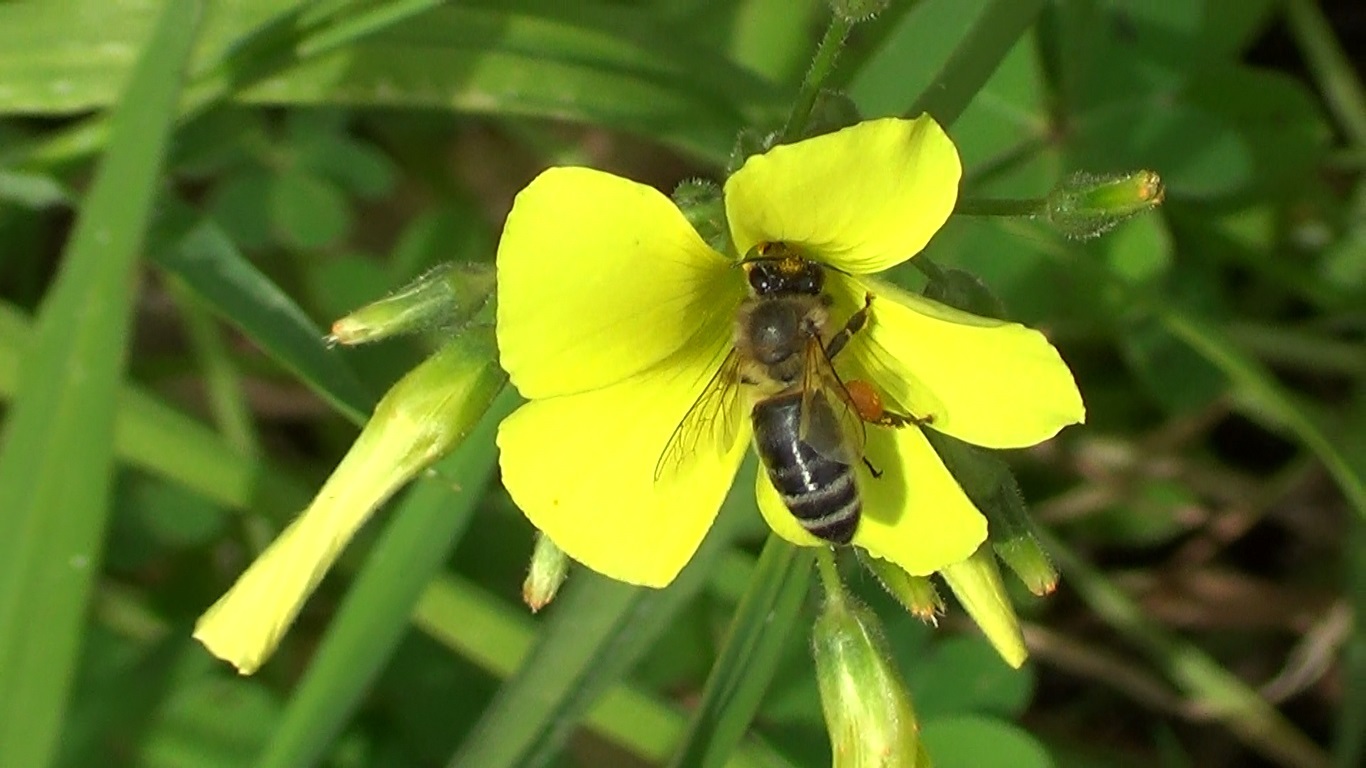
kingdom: Animalia
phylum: Arthropoda
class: Insecta
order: Hymenoptera
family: Apidae
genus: Apis
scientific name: Apis mellifera
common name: Honey bee
